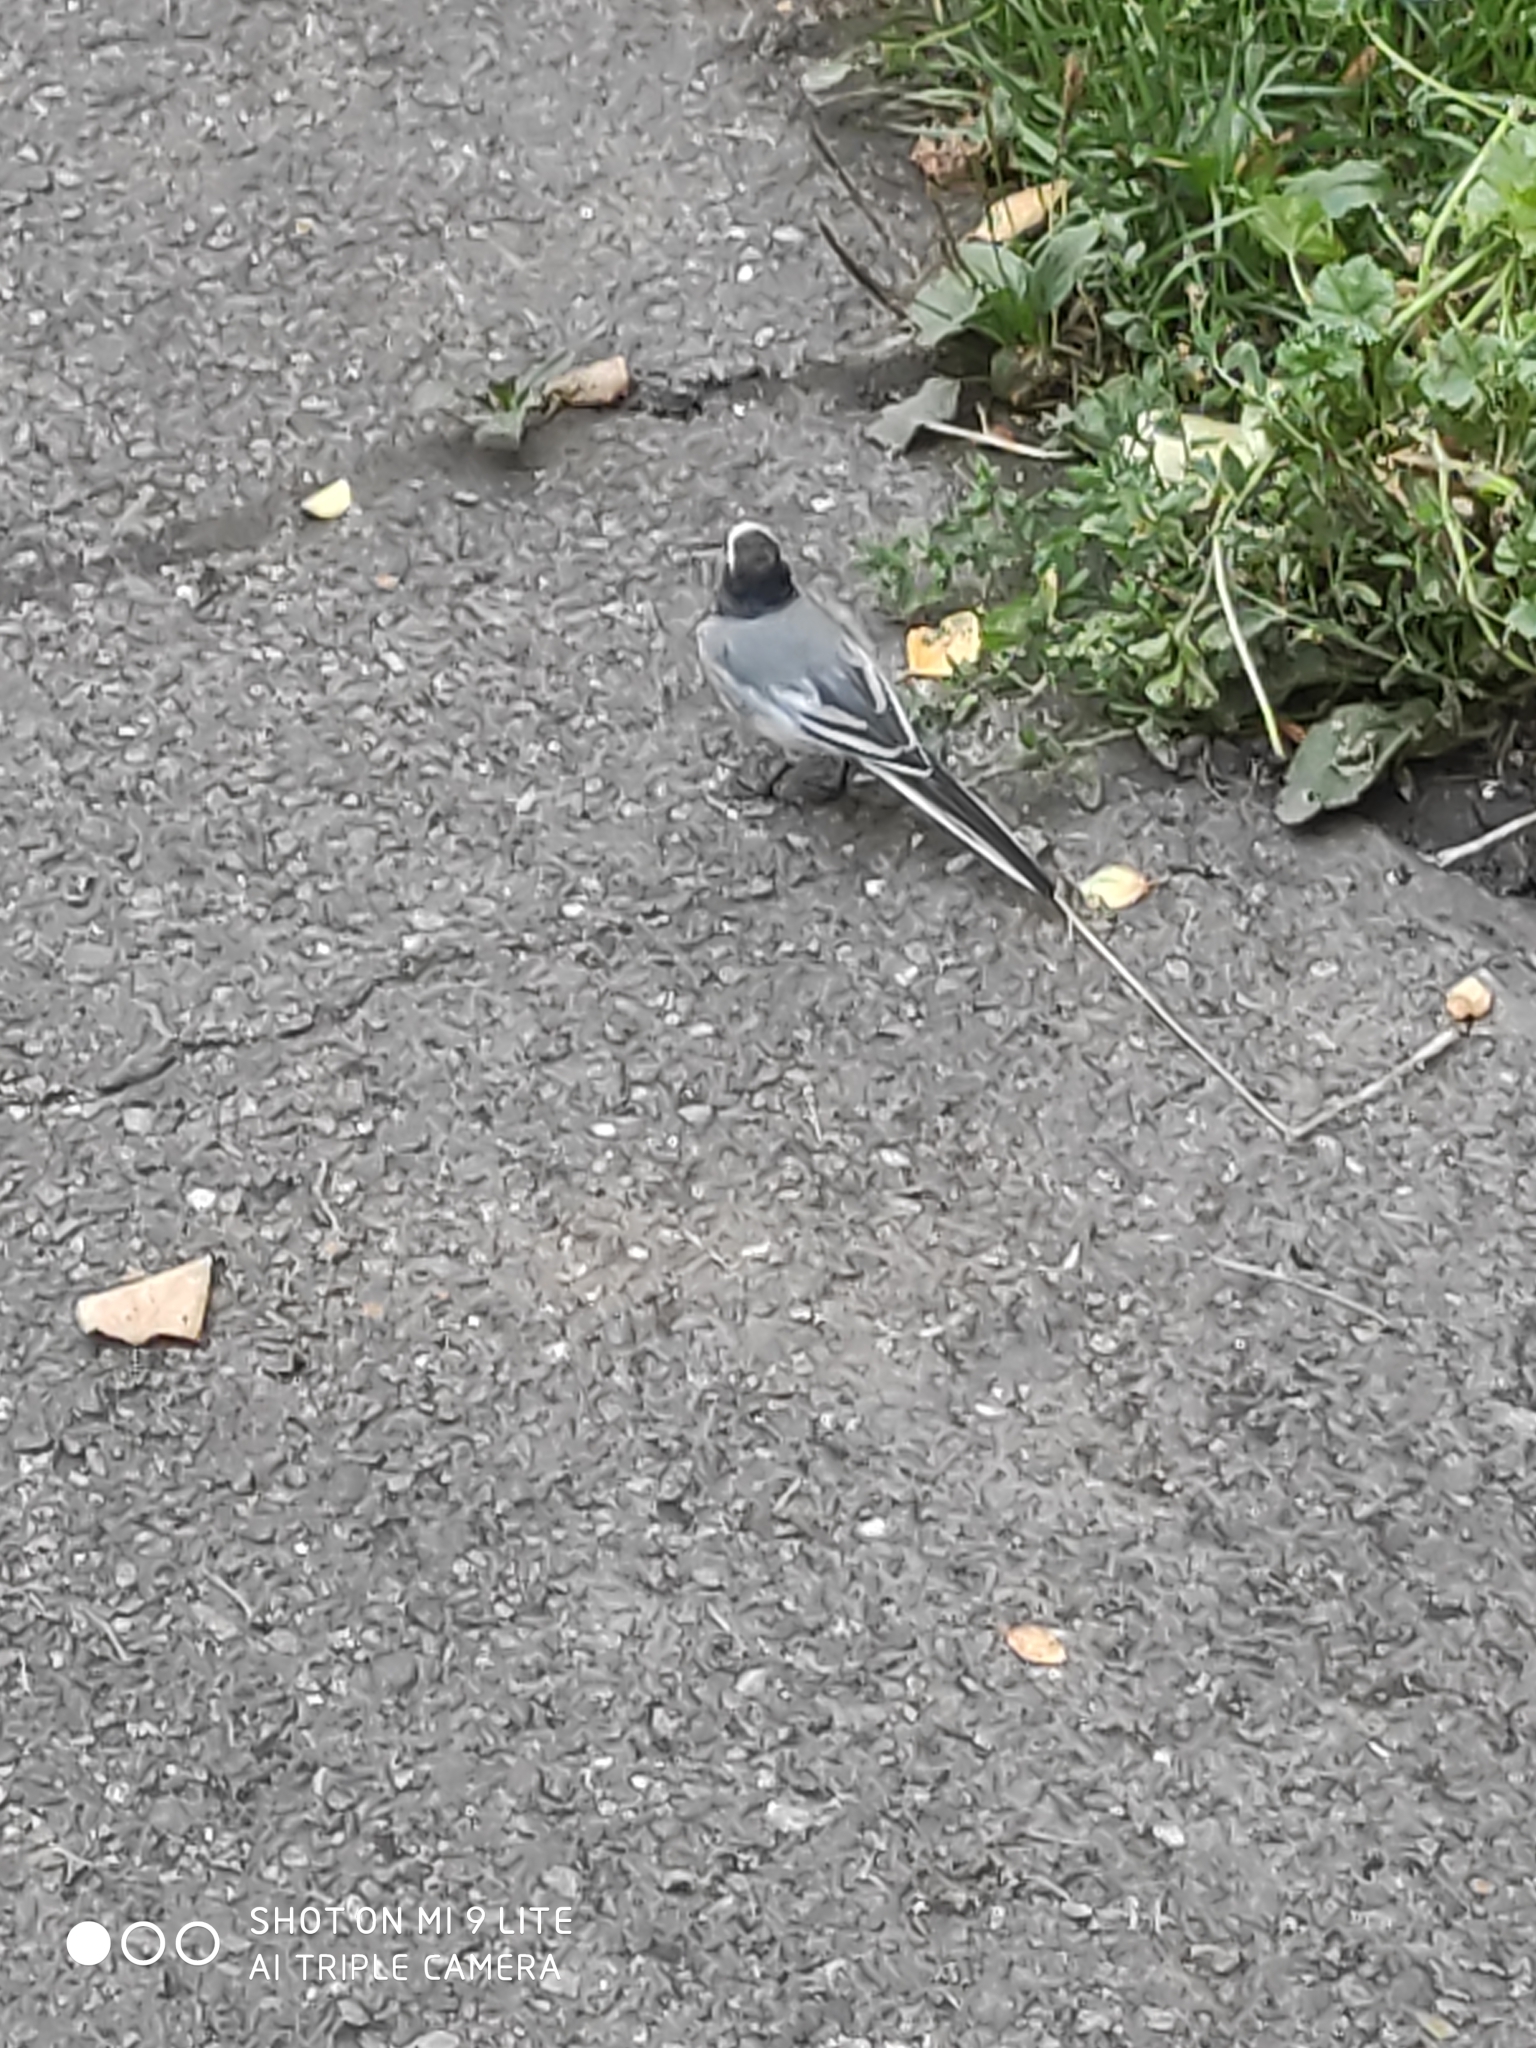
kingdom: Animalia
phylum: Chordata
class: Aves
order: Passeriformes
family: Motacillidae
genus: Motacilla
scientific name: Motacilla alba
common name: White wagtail
